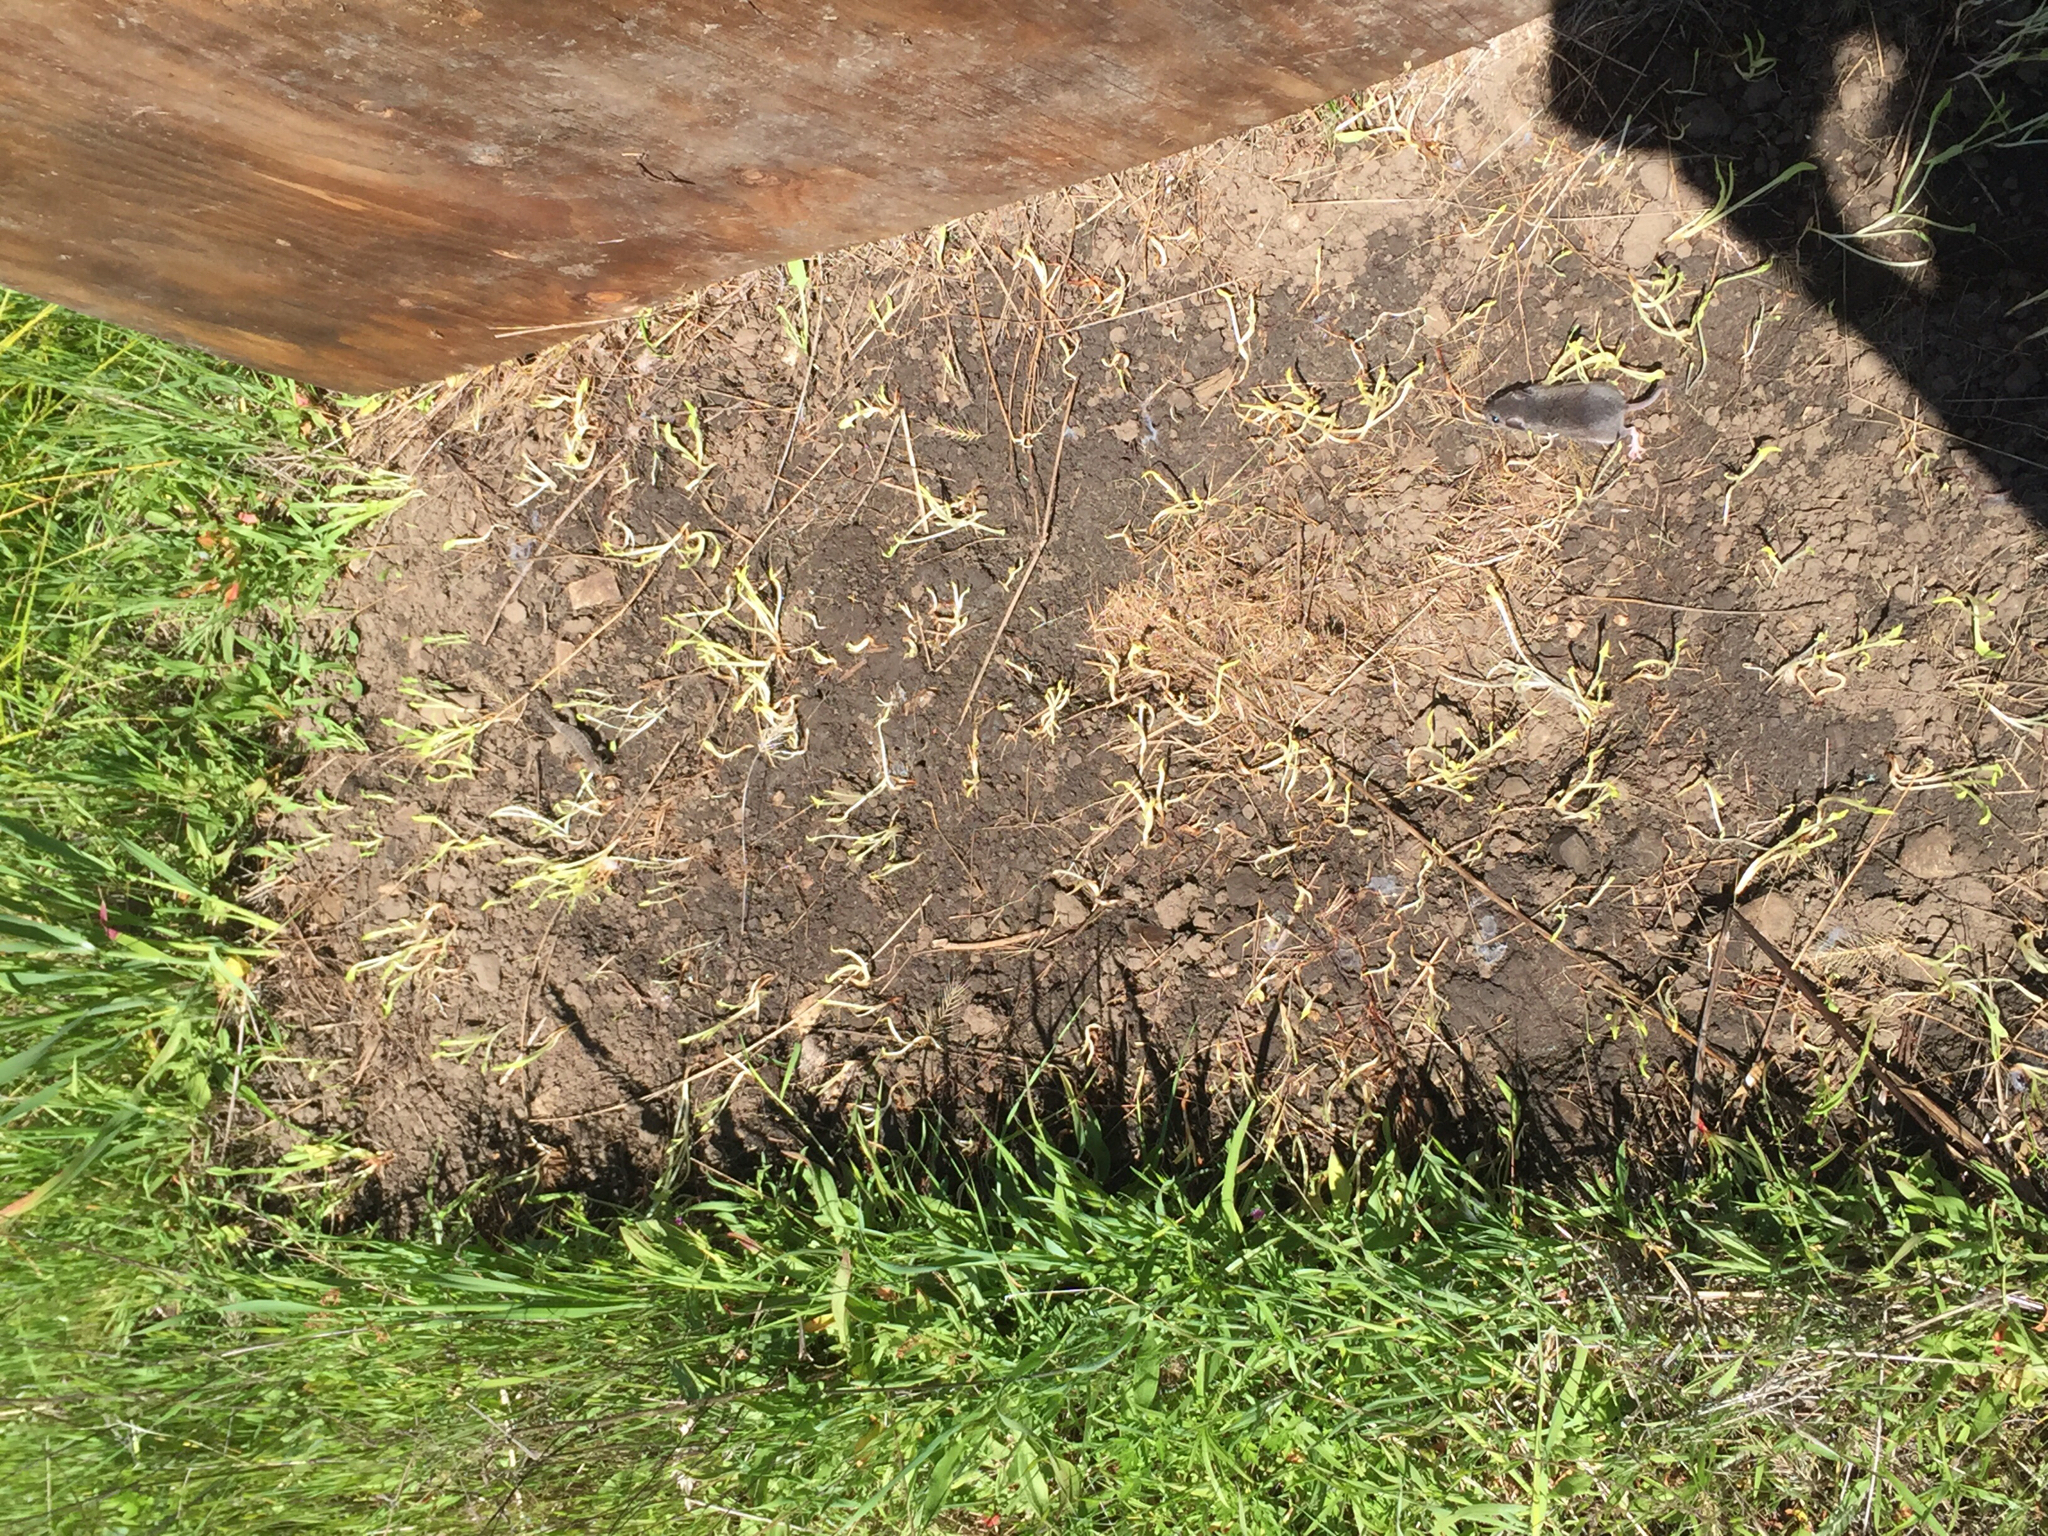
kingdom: Animalia
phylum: Chordata
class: Squamata
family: Phrynosomatidae
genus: Sceloporus
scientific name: Sceloporus occidentalis
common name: Western fence lizard
